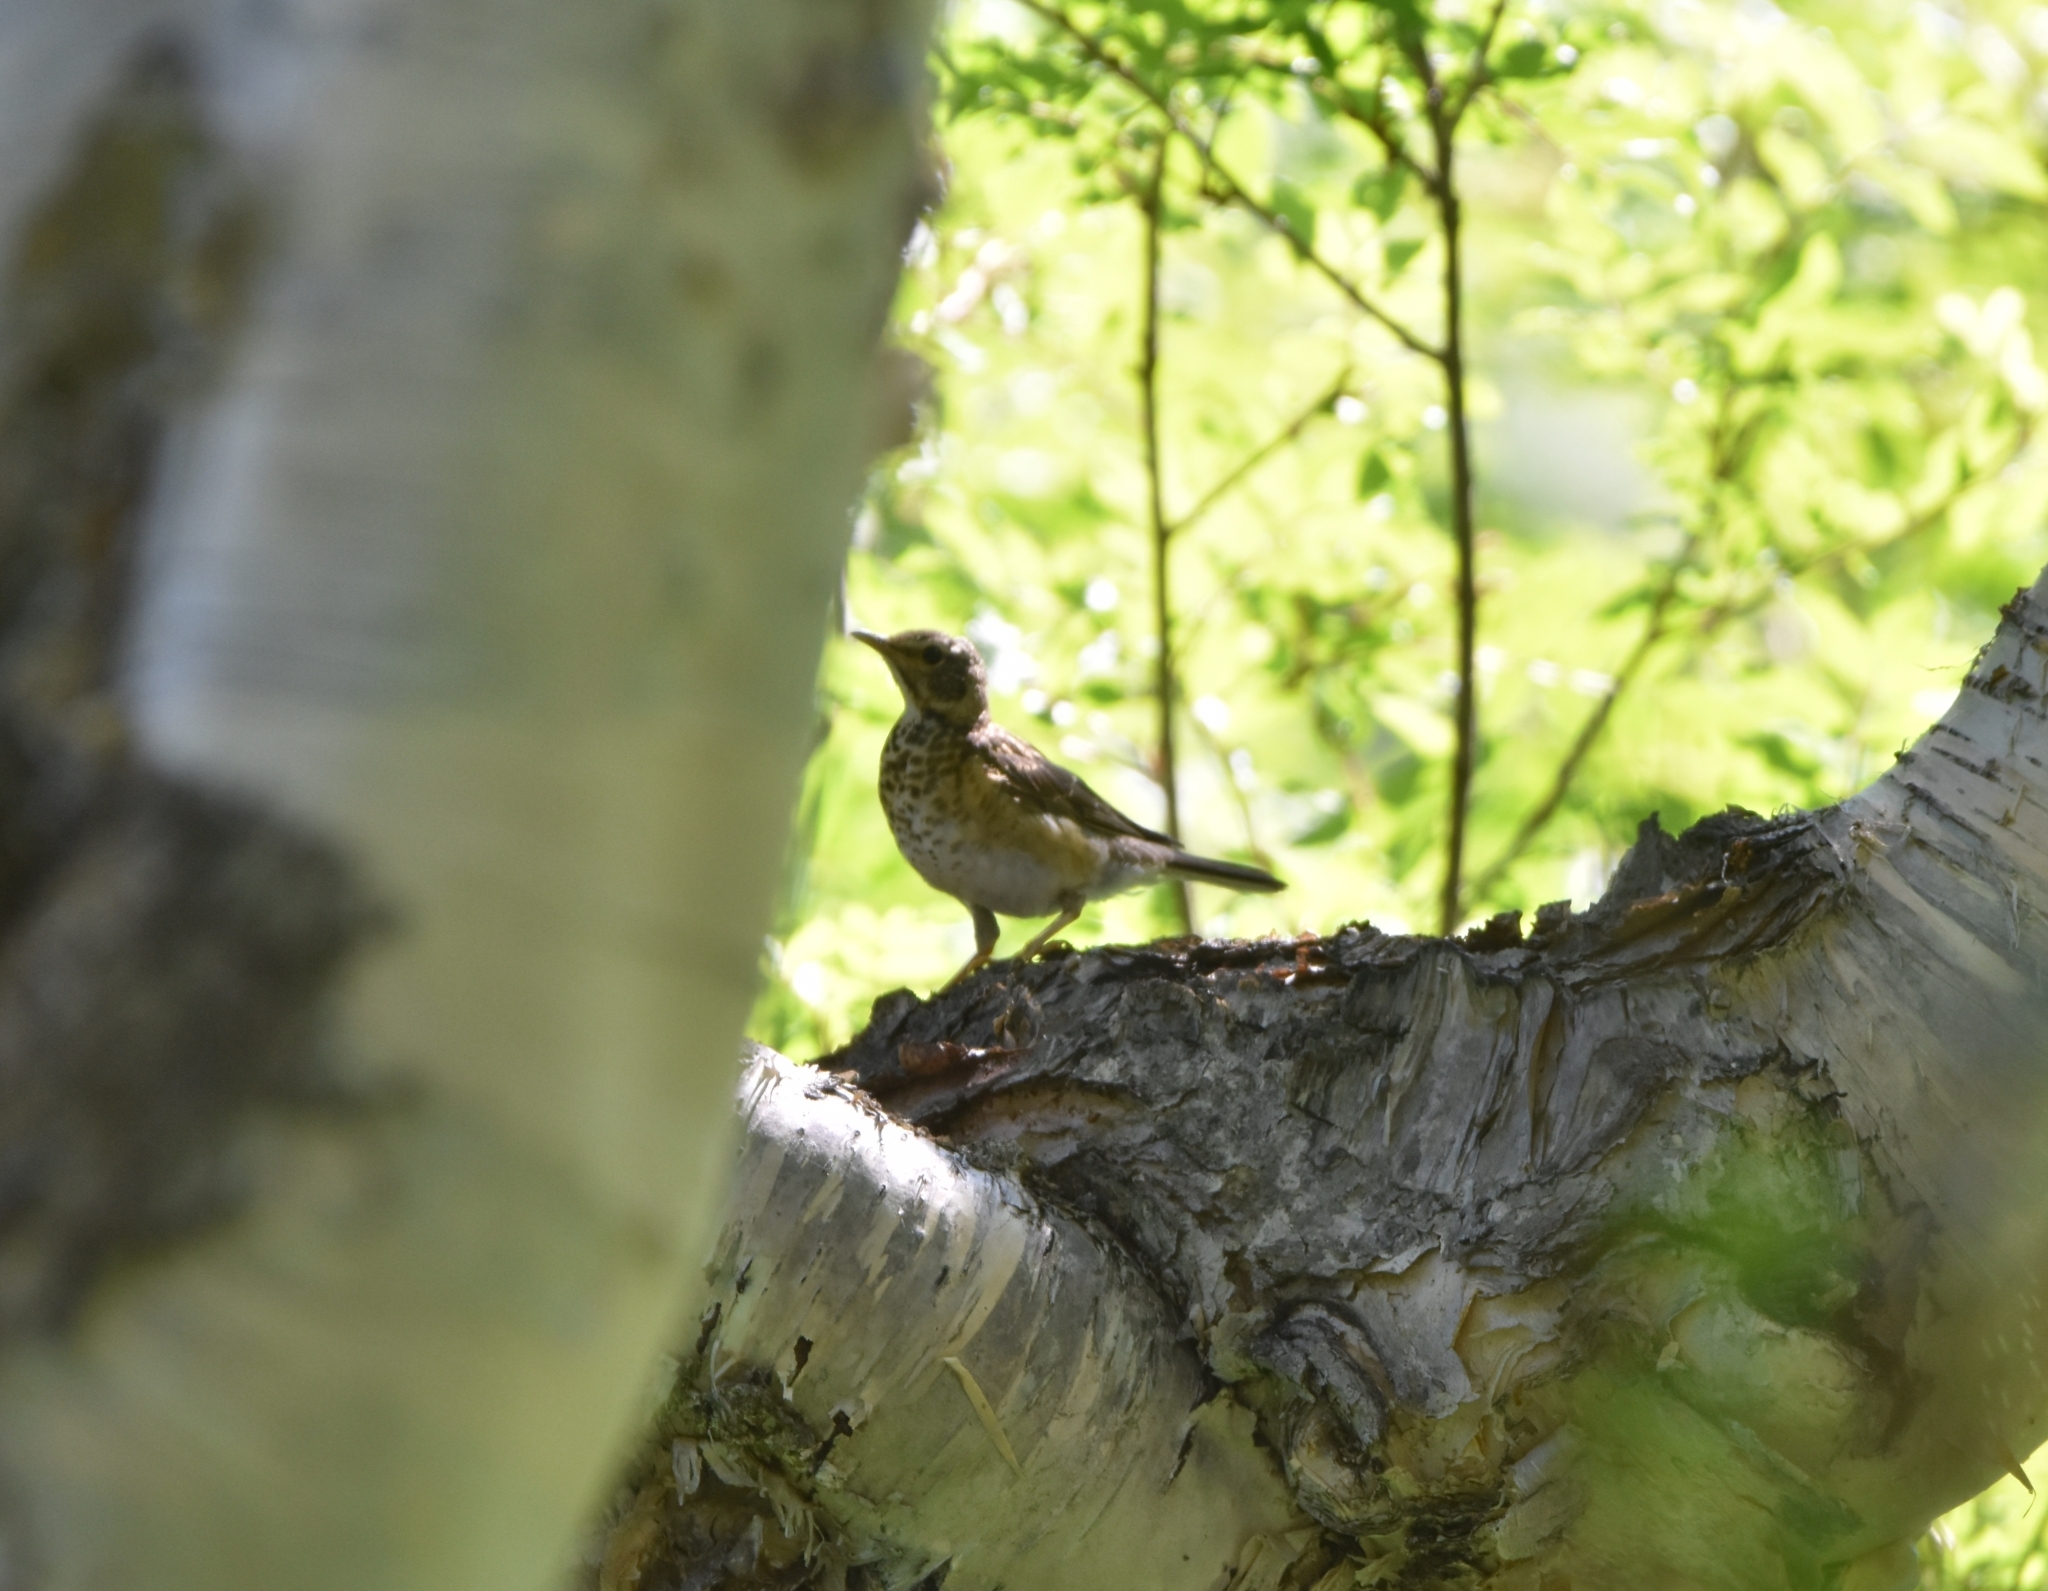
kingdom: Animalia
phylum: Chordata
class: Aves
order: Passeriformes
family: Turdidae
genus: Turdus
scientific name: Turdus obscurus
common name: Eyebrowed thrush
